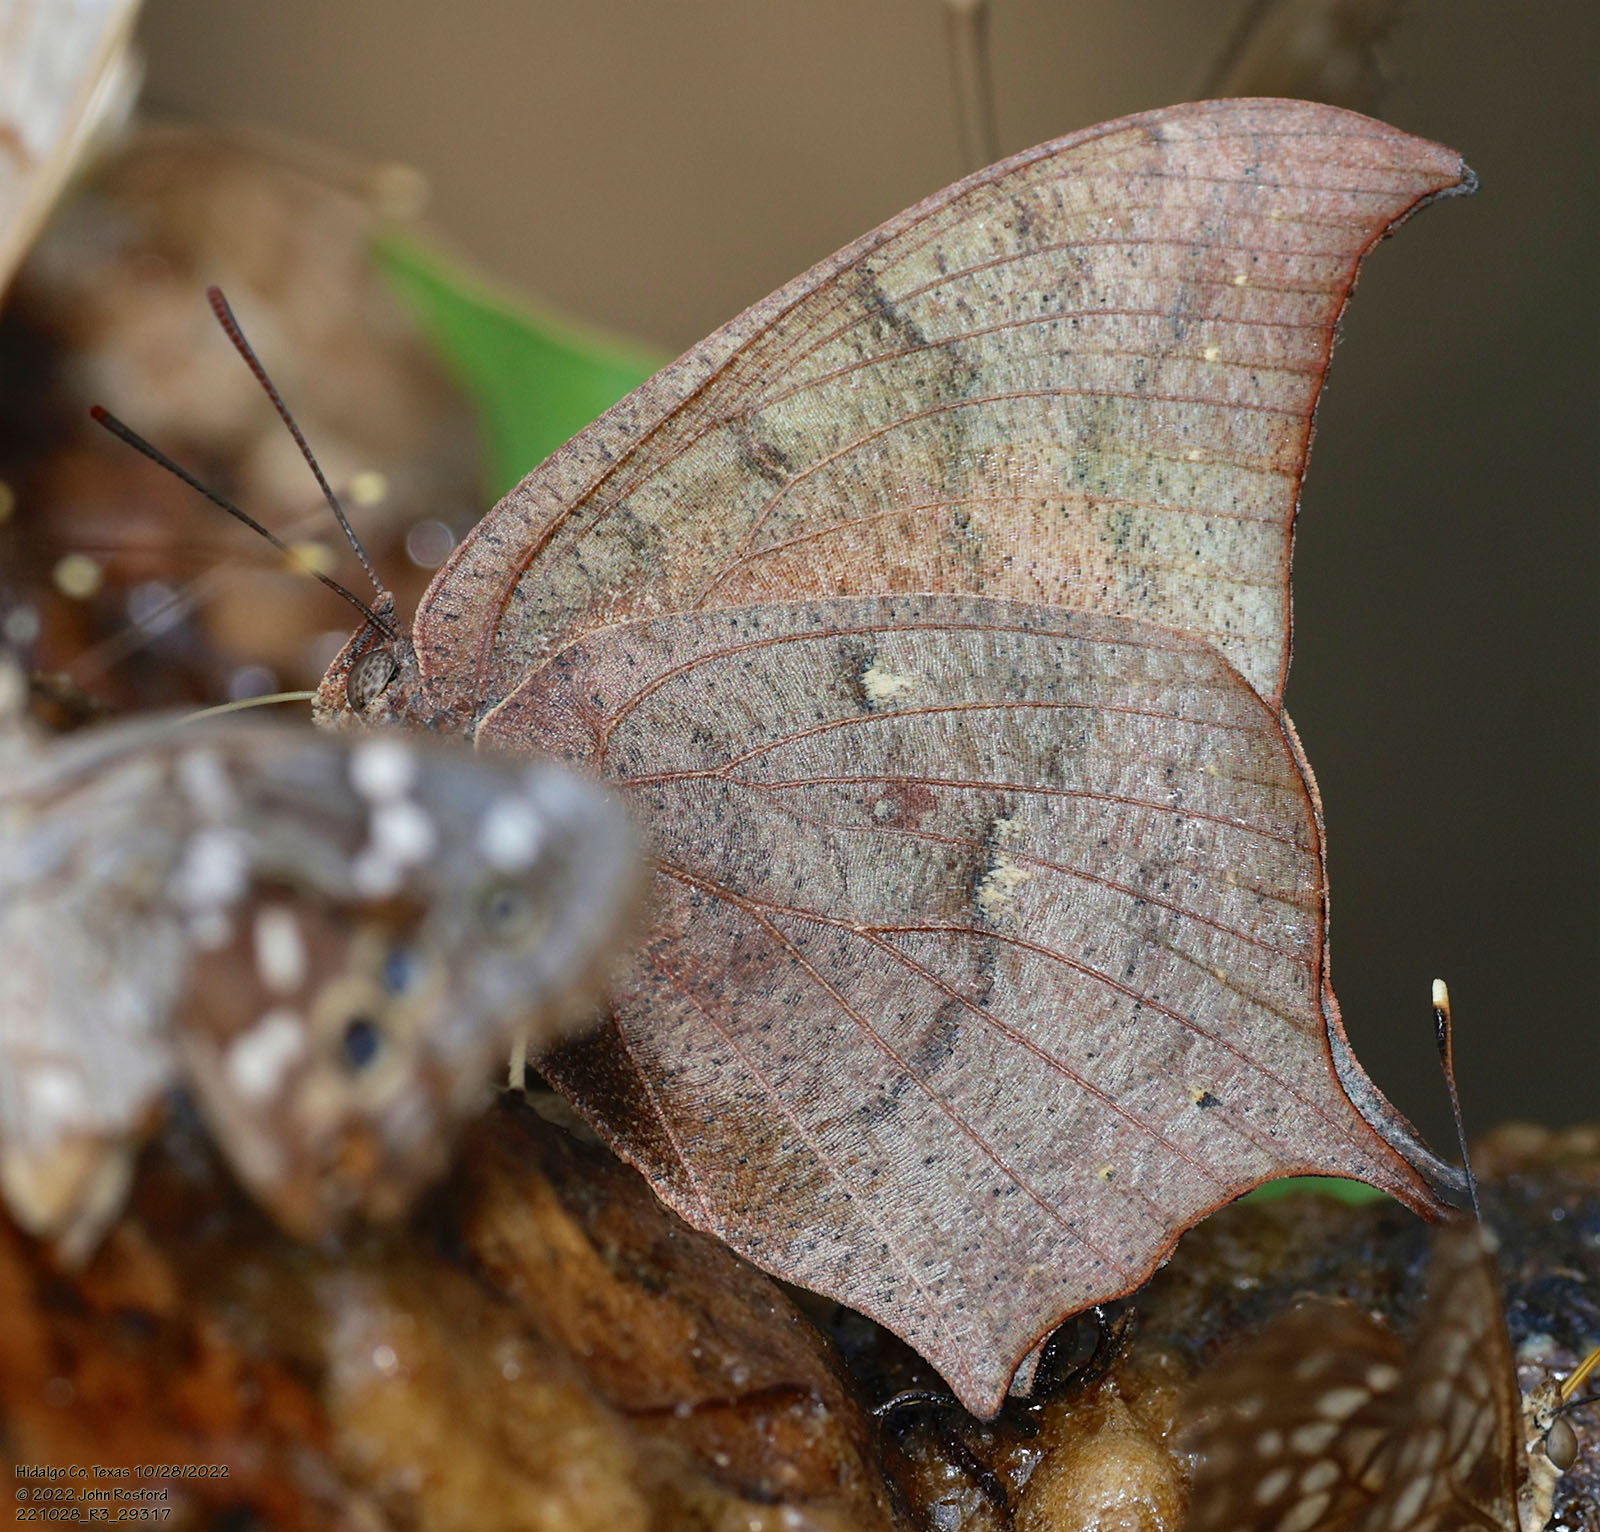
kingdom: Animalia
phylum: Arthropoda
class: Insecta
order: Lepidoptera
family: Nymphalidae
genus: Anaea
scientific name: Anaea andria
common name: Goatweed leafwing
